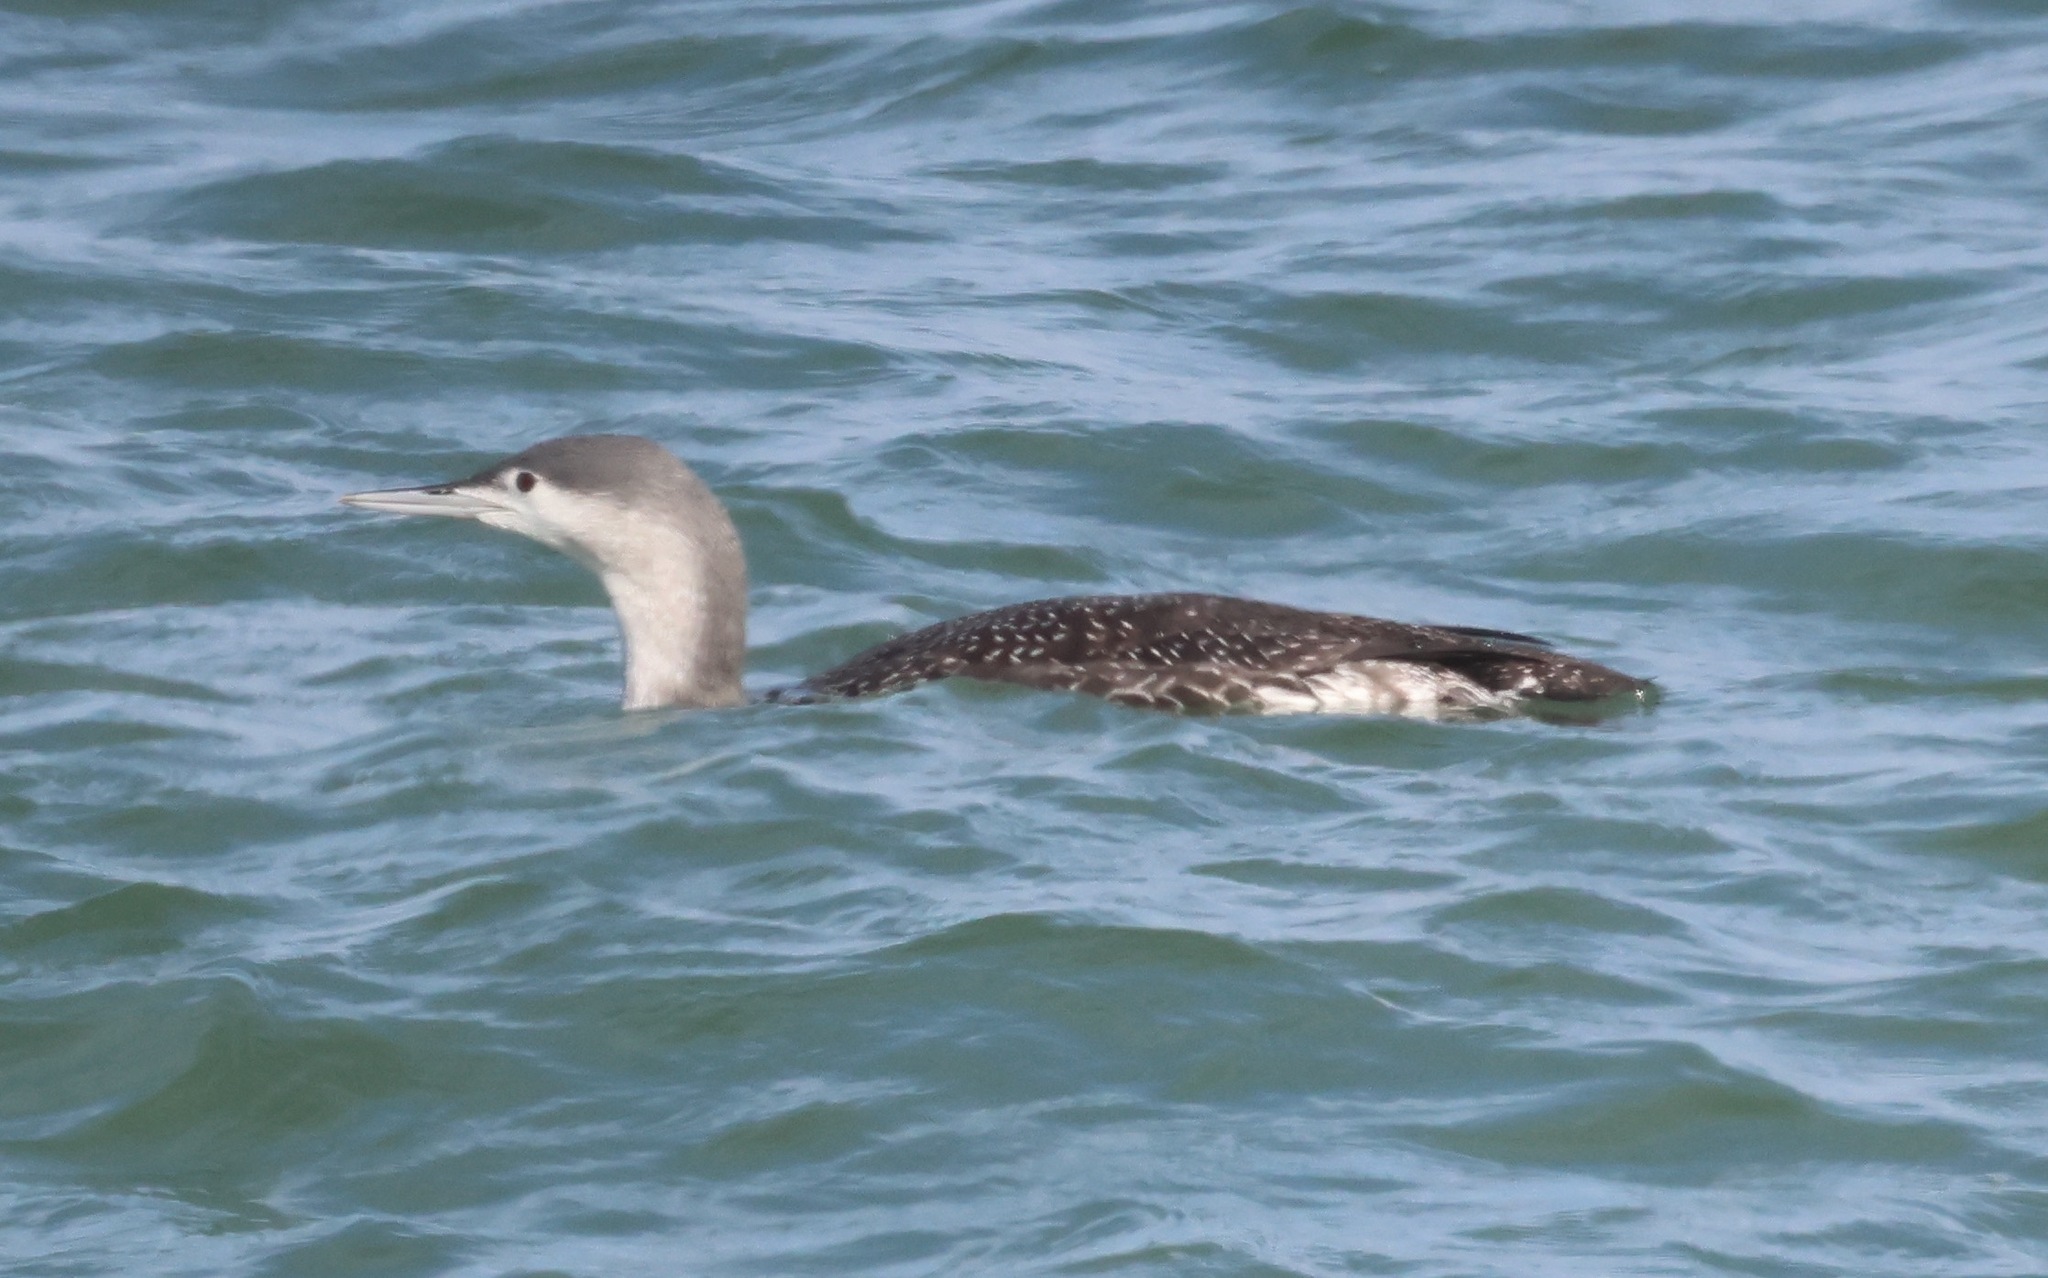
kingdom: Animalia
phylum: Chordata
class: Aves
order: Gaviiformes
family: Gaviidae
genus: Gavia
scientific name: Gavia stellata
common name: Red-throated loon
